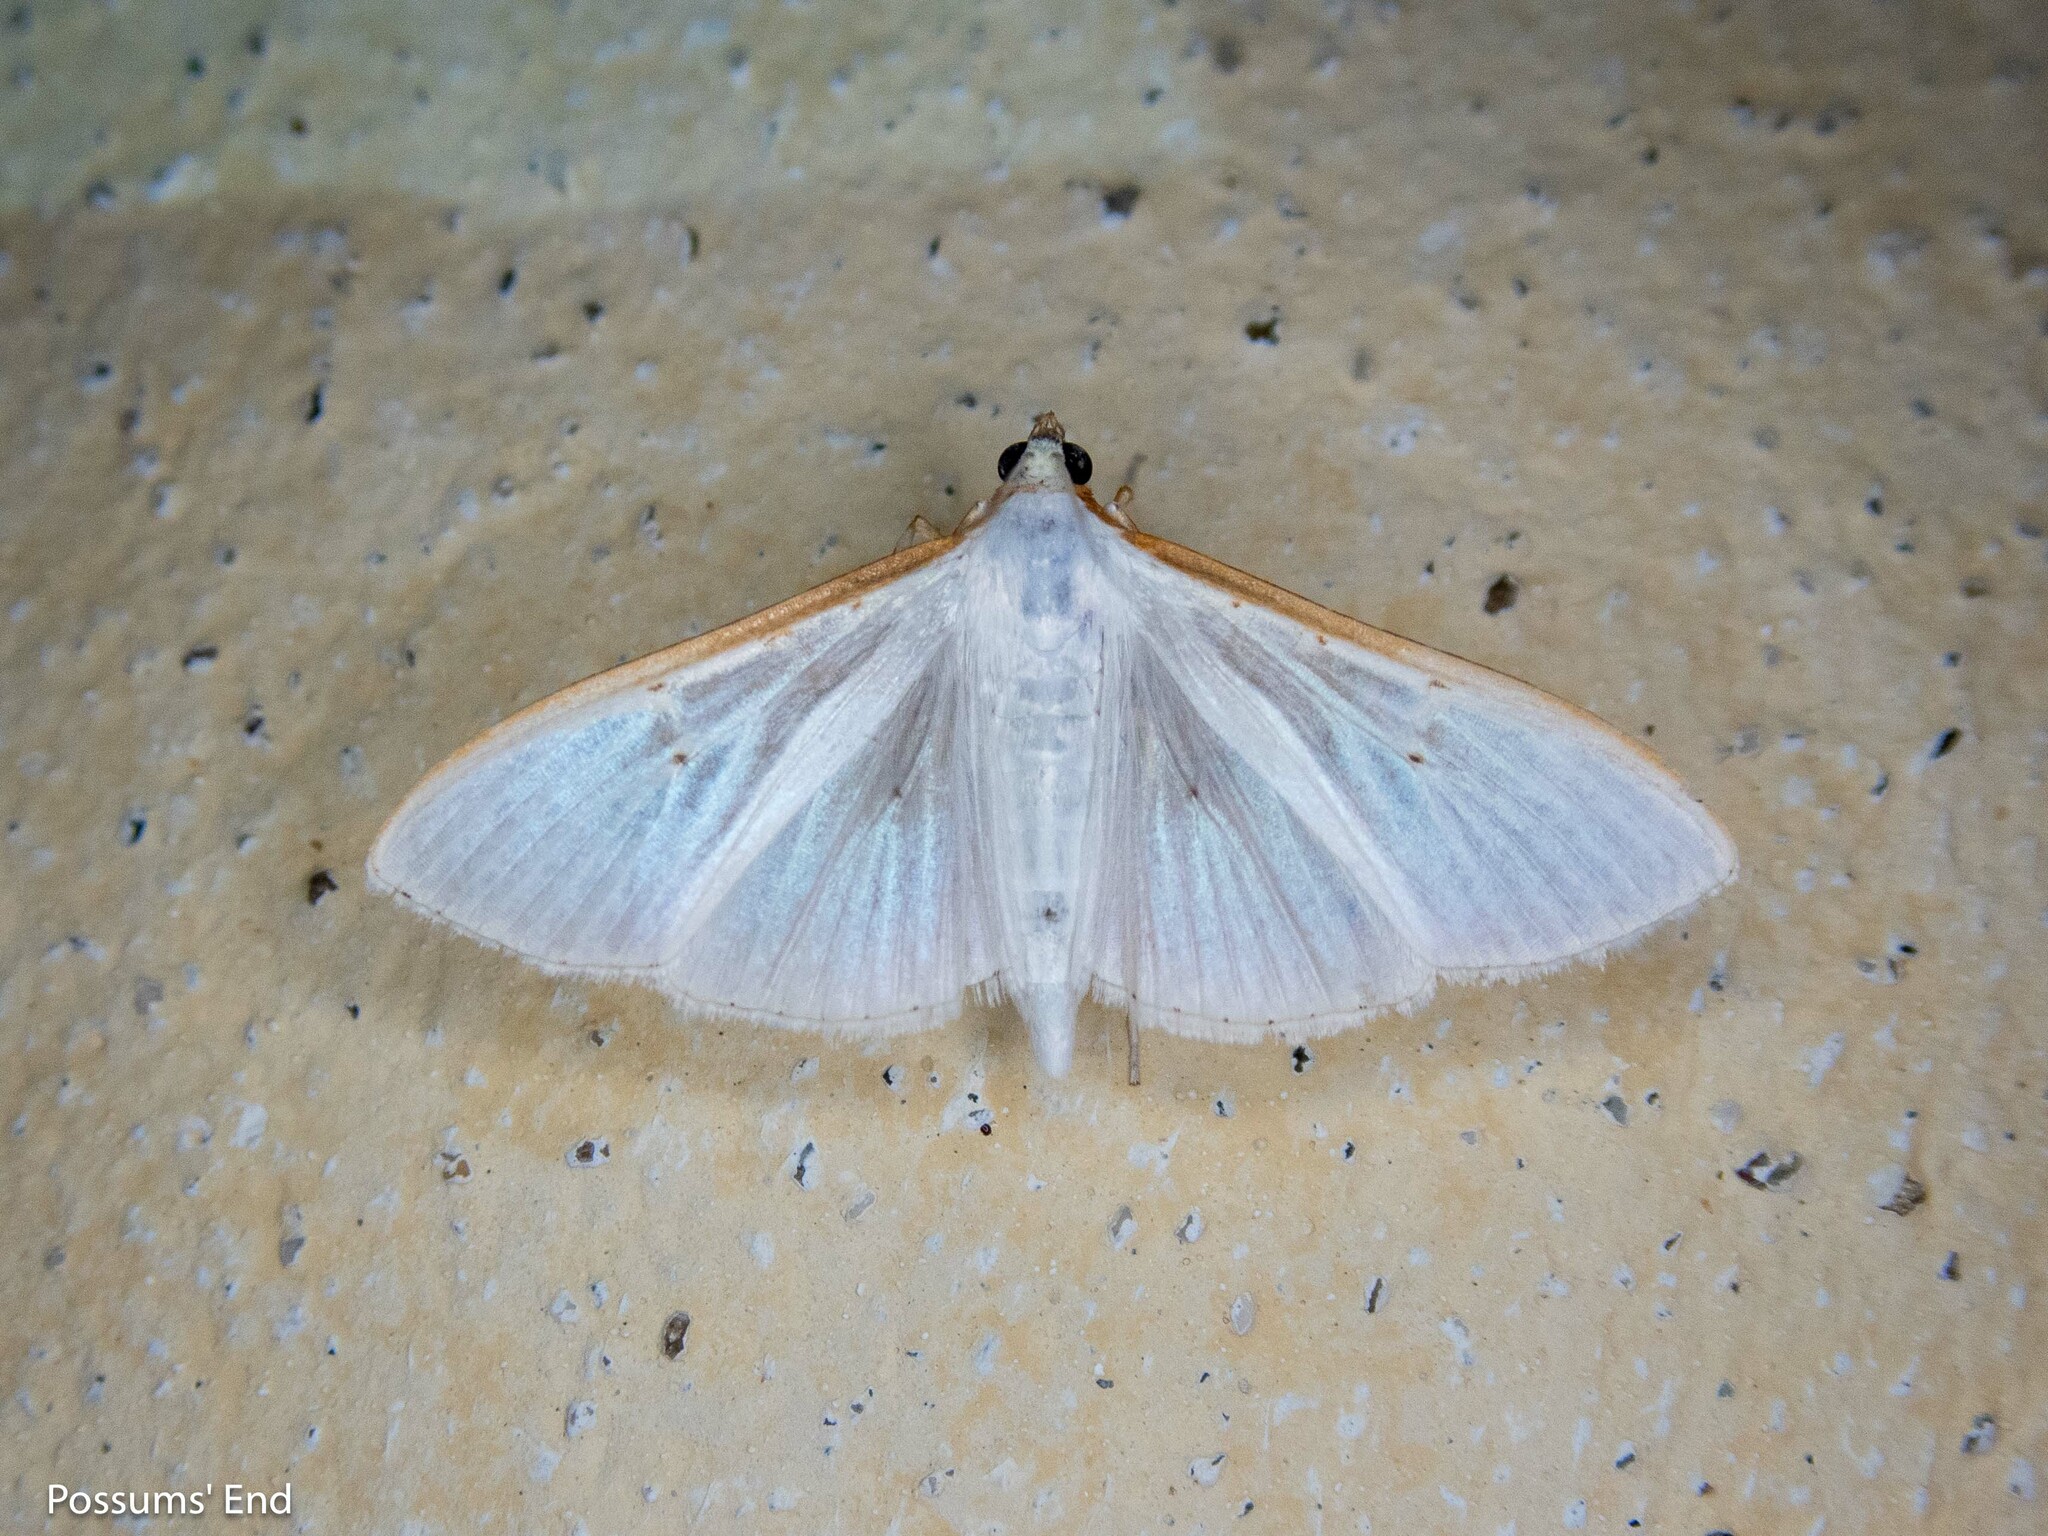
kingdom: Animalia
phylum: Arthropoda
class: Insecta
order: Lepidoptera
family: Crambidae
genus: Palpita
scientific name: Palpita vitrealis
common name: Olive-tree pearl
